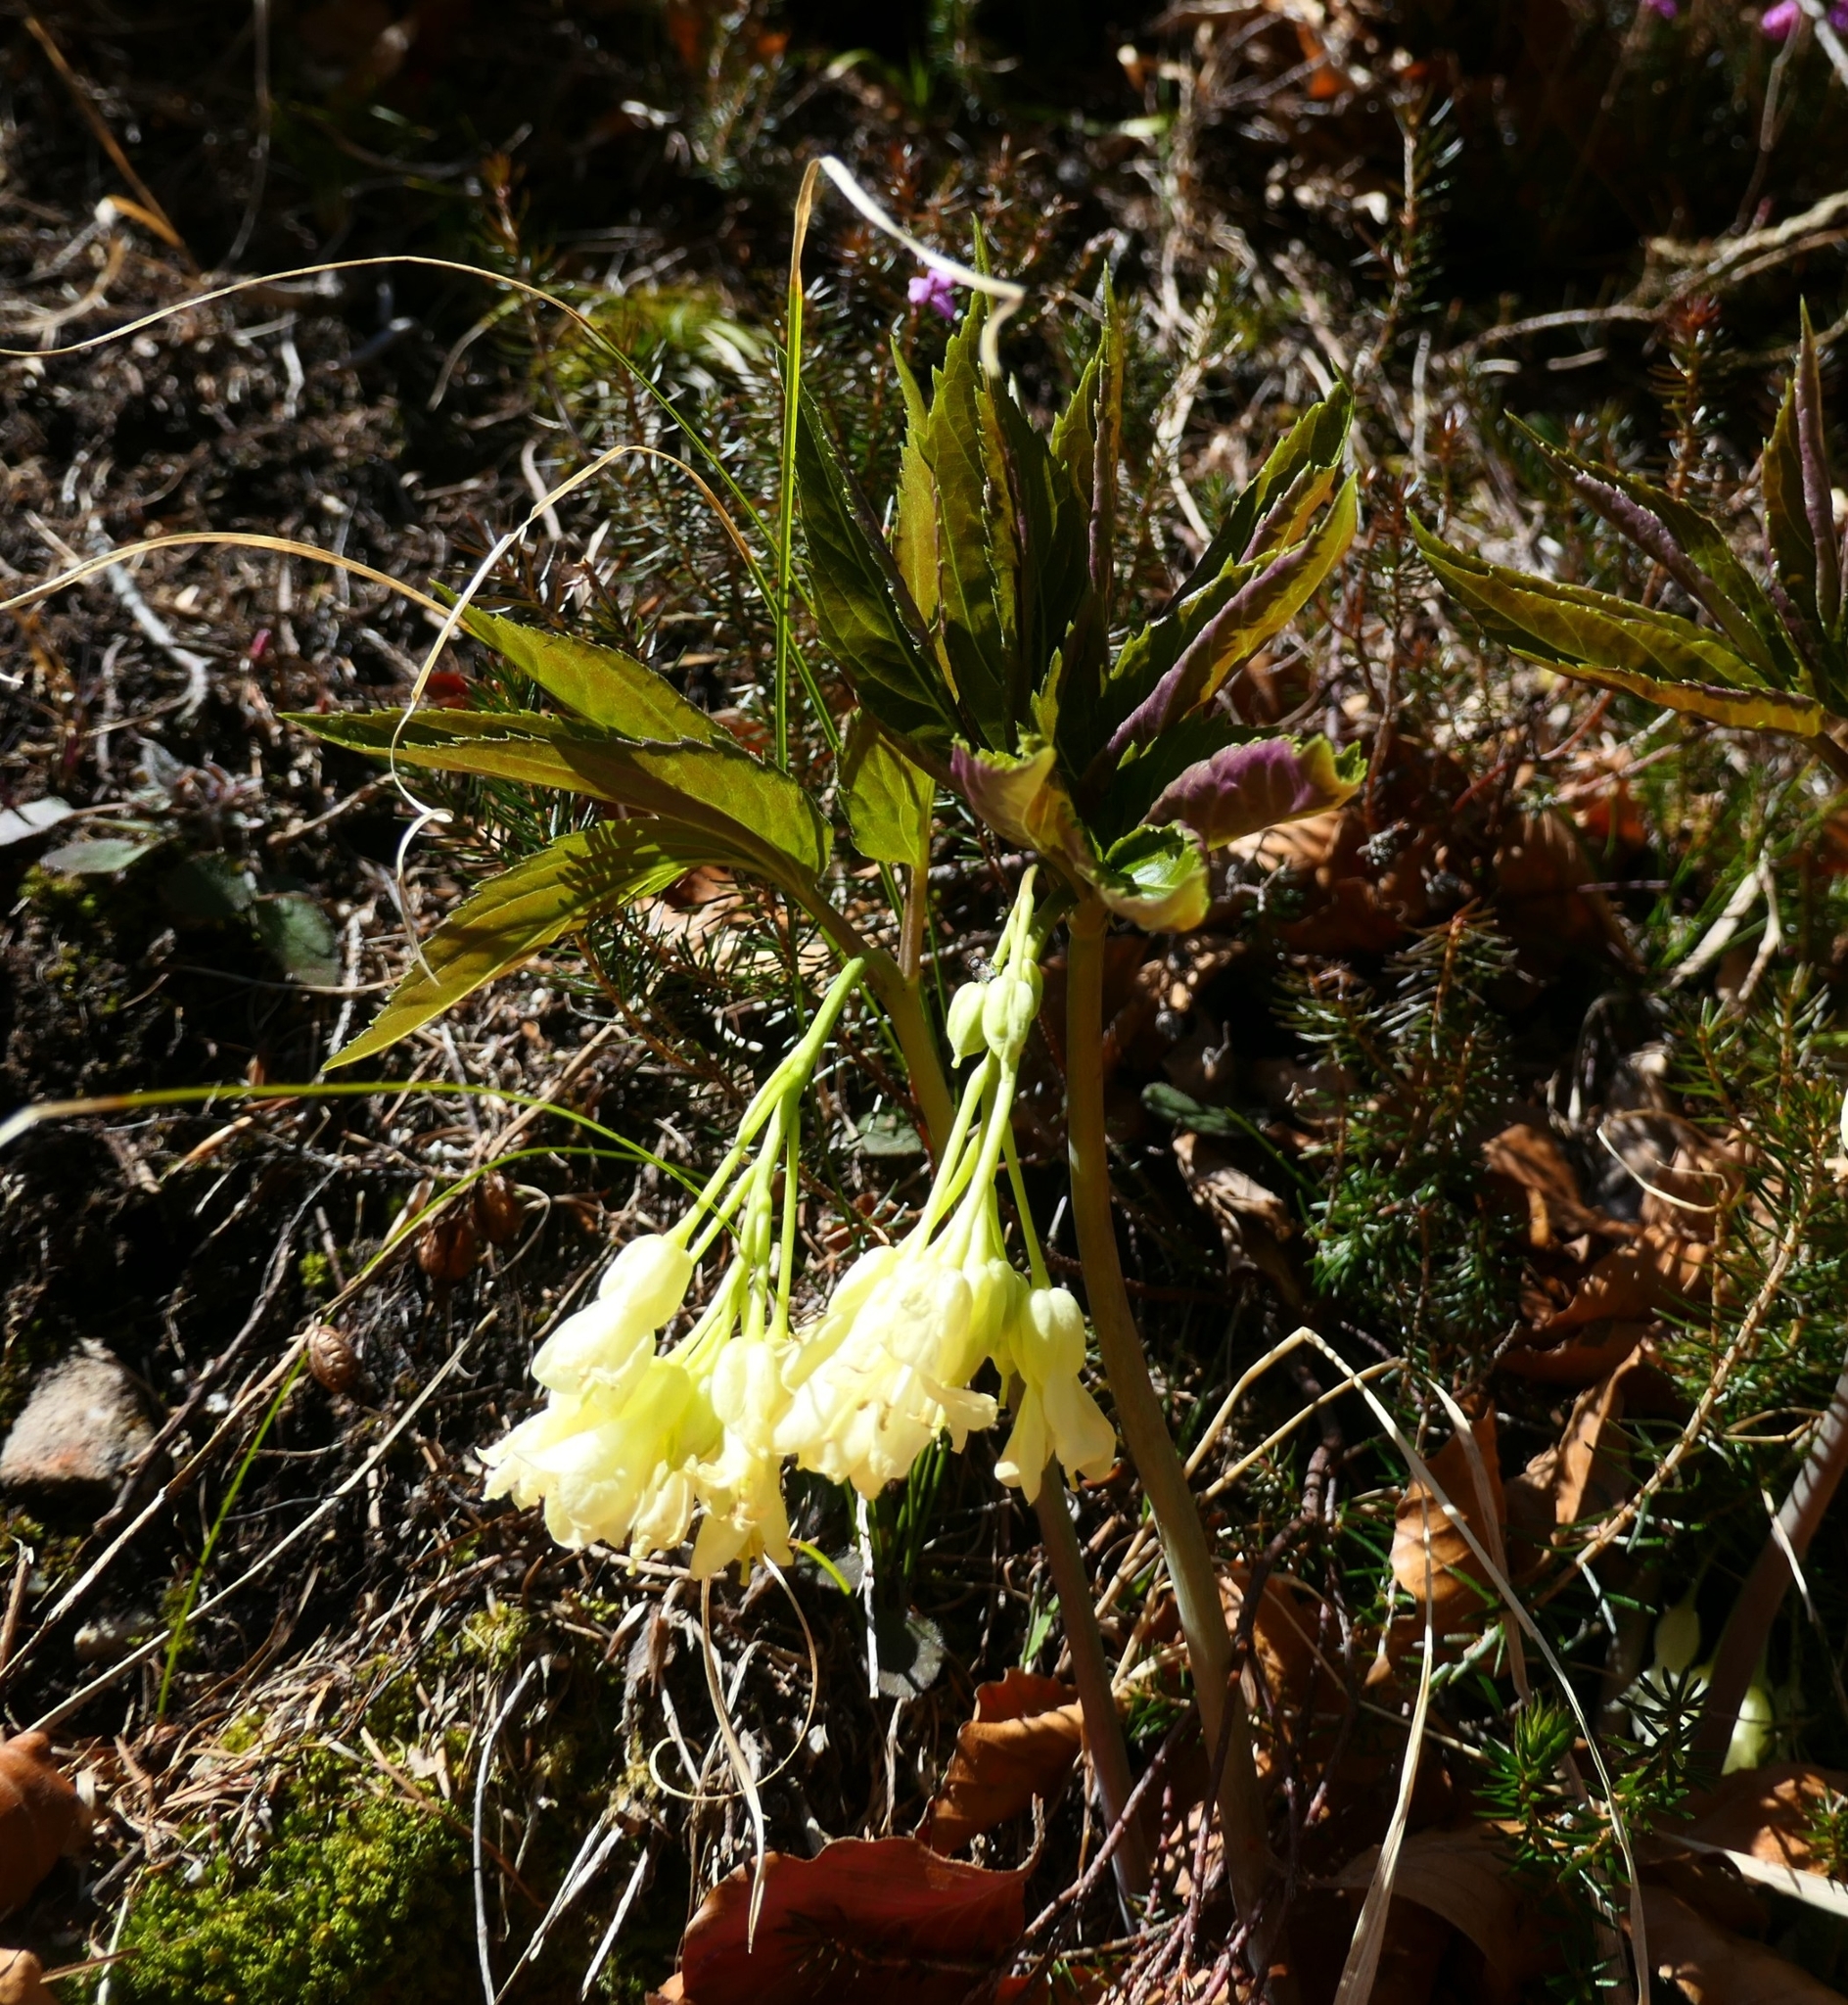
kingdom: Plantae
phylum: Tracheophyta
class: Magnoliopsida
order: Brassicales
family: Brassicaceae
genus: Cardamine
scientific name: Cardamine enneaphyllos
